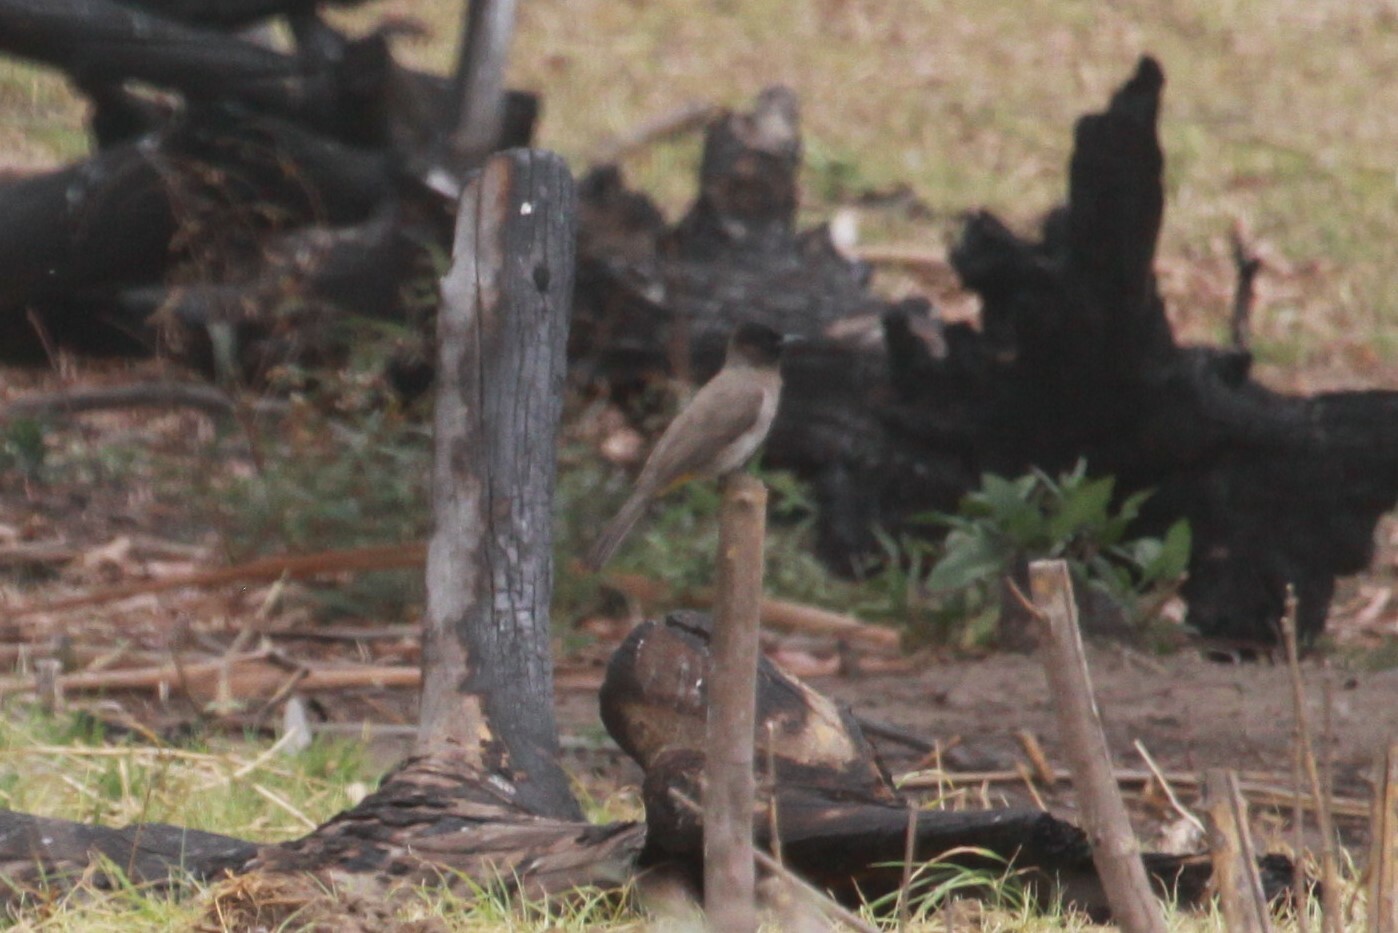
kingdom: Animalia
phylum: Chordata
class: Aves
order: Passeriformes
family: Pycnonotidae
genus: Pycnonotus
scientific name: Pycnonotus barbatus
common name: Common bulbul
